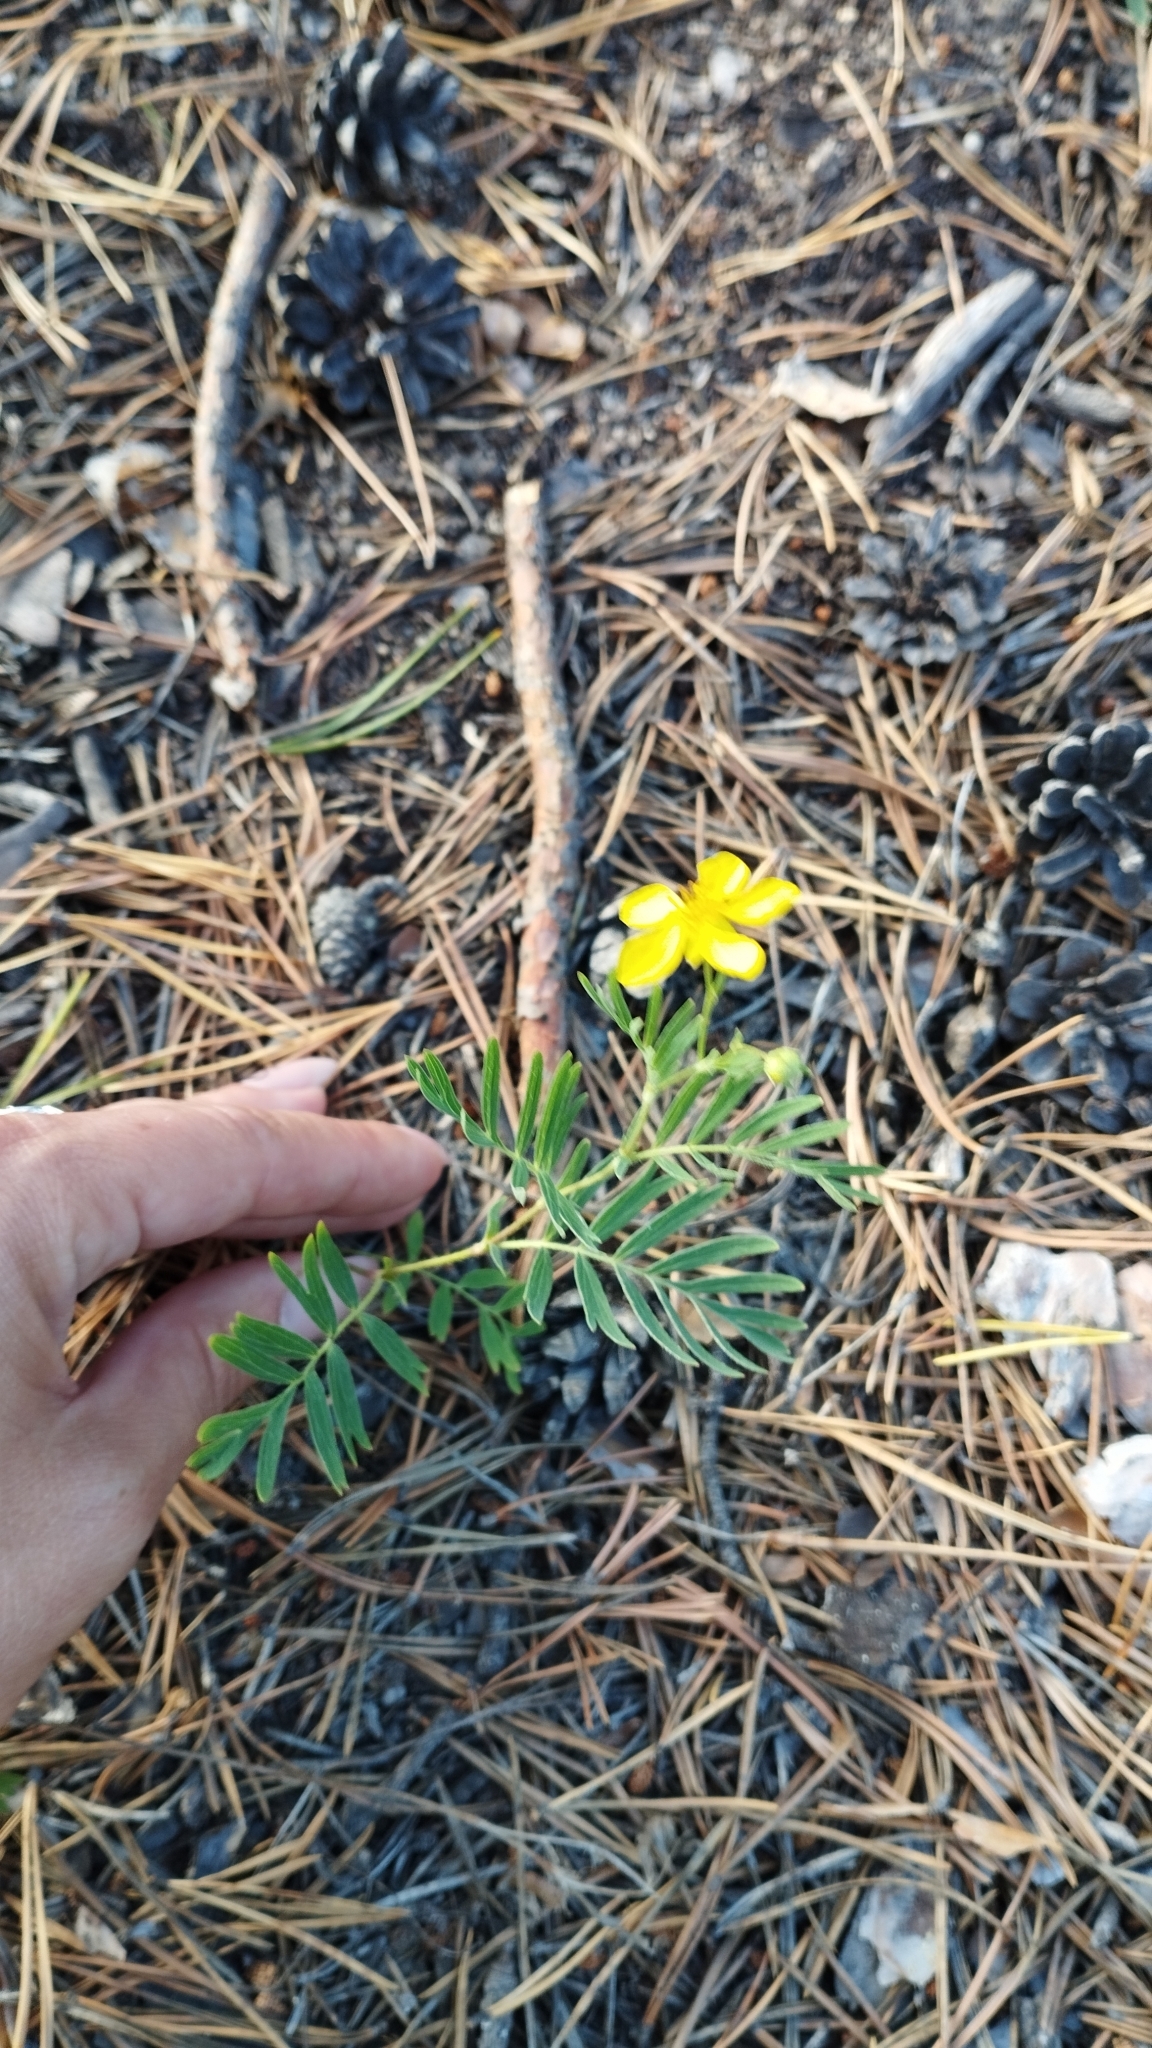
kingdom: Plantae
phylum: Tracheophyta
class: Magnoliopsida
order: Rosales
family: Rosaceae
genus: Sibbaldianthe
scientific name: Sibbaldianthe bifurca
